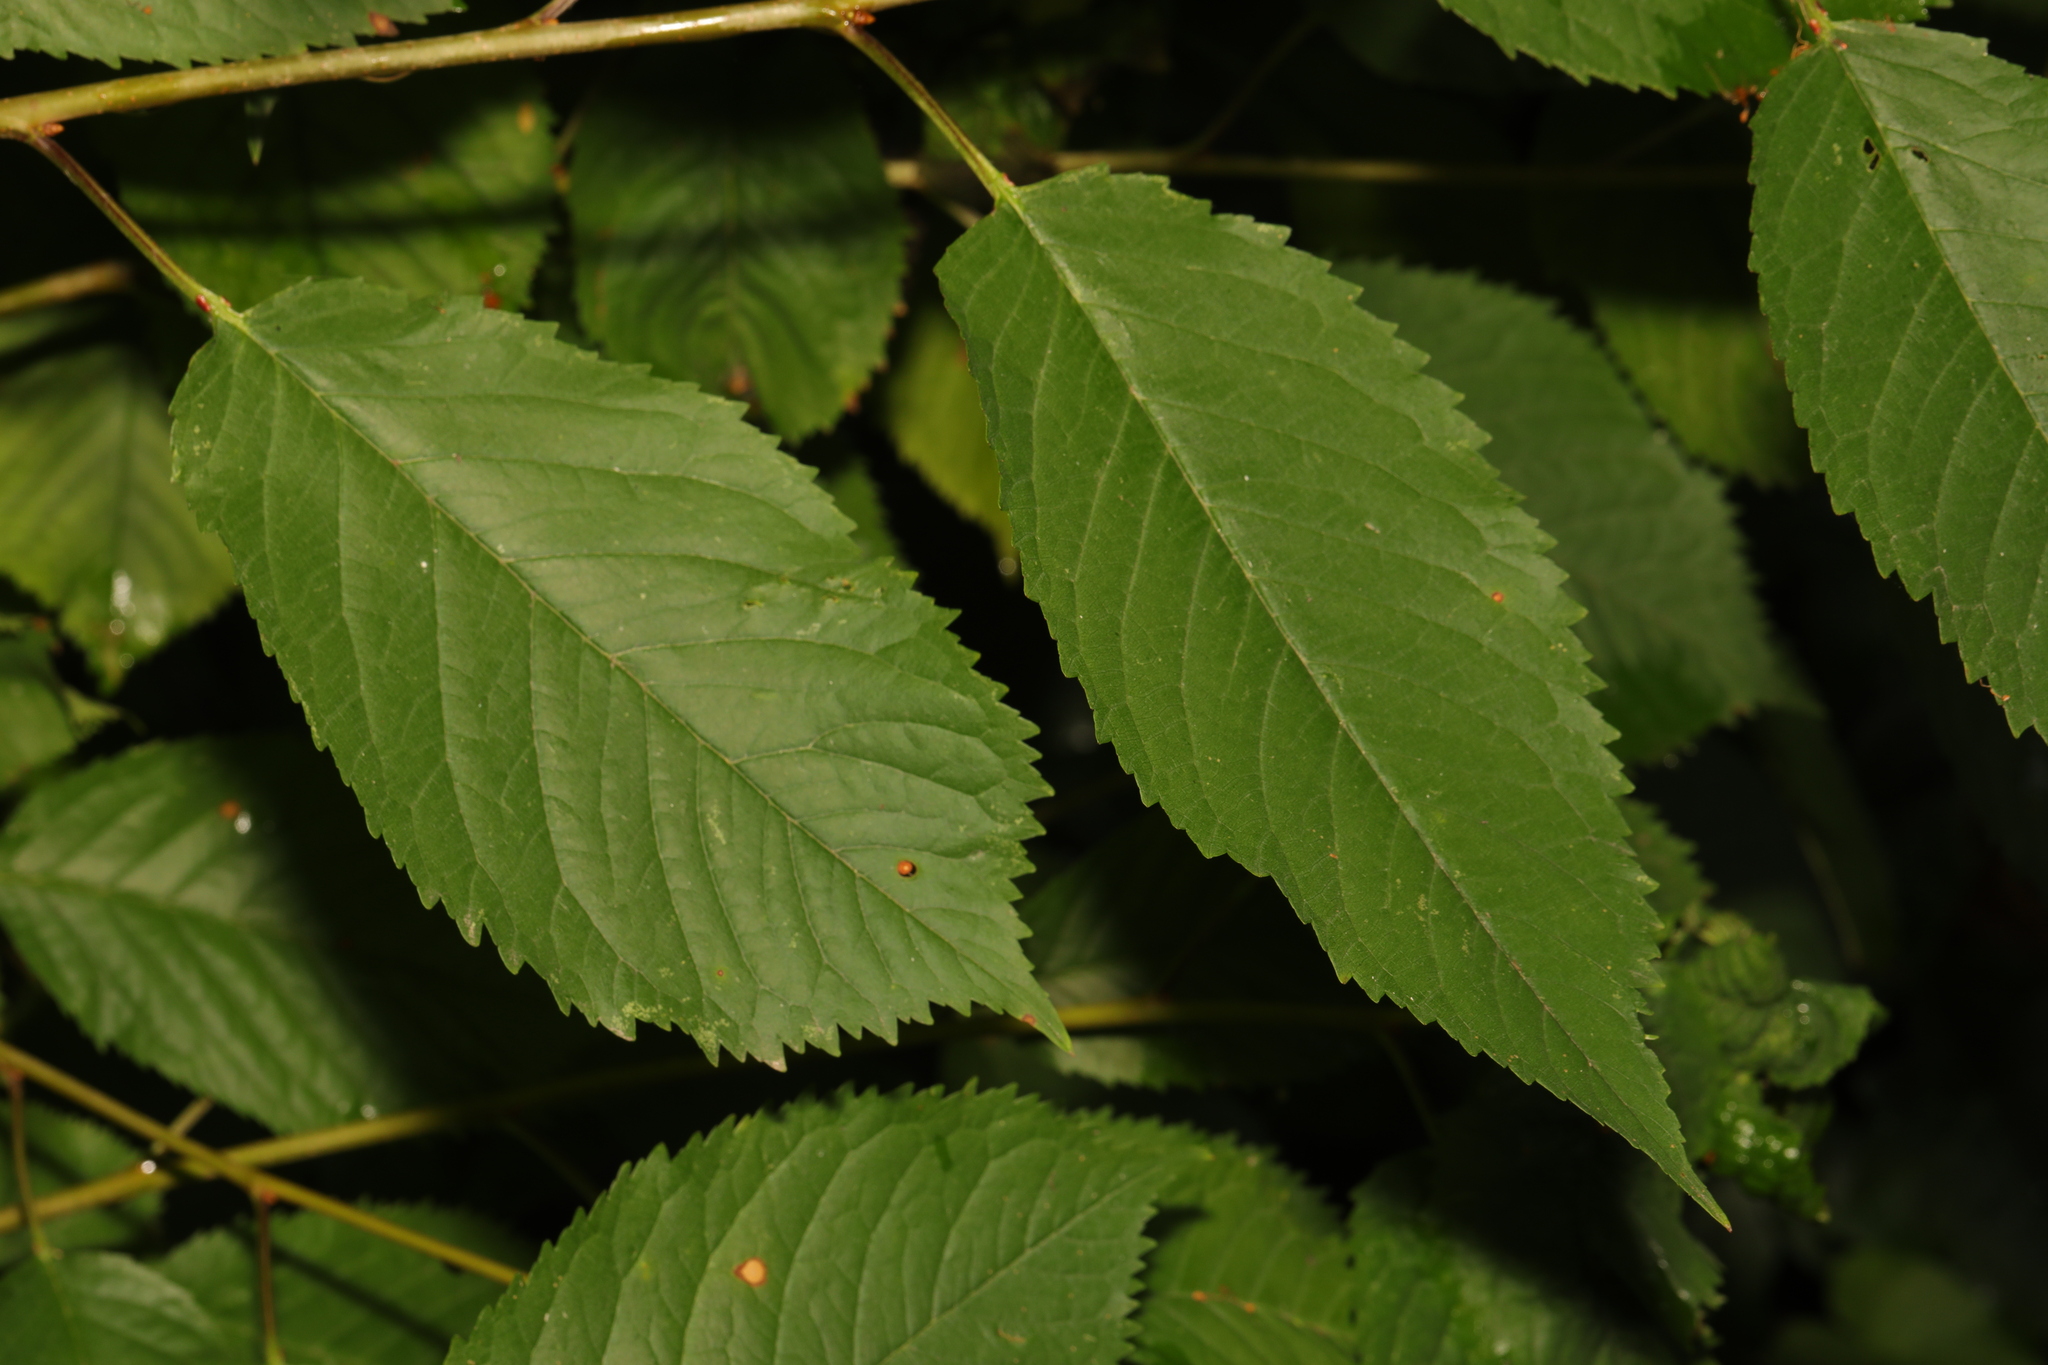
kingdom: Plantae
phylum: Tracheophyta
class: Magnoliopsida
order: Rosales
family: Rosaceae
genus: Prunus
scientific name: Prunus avium
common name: Sweet cherry
